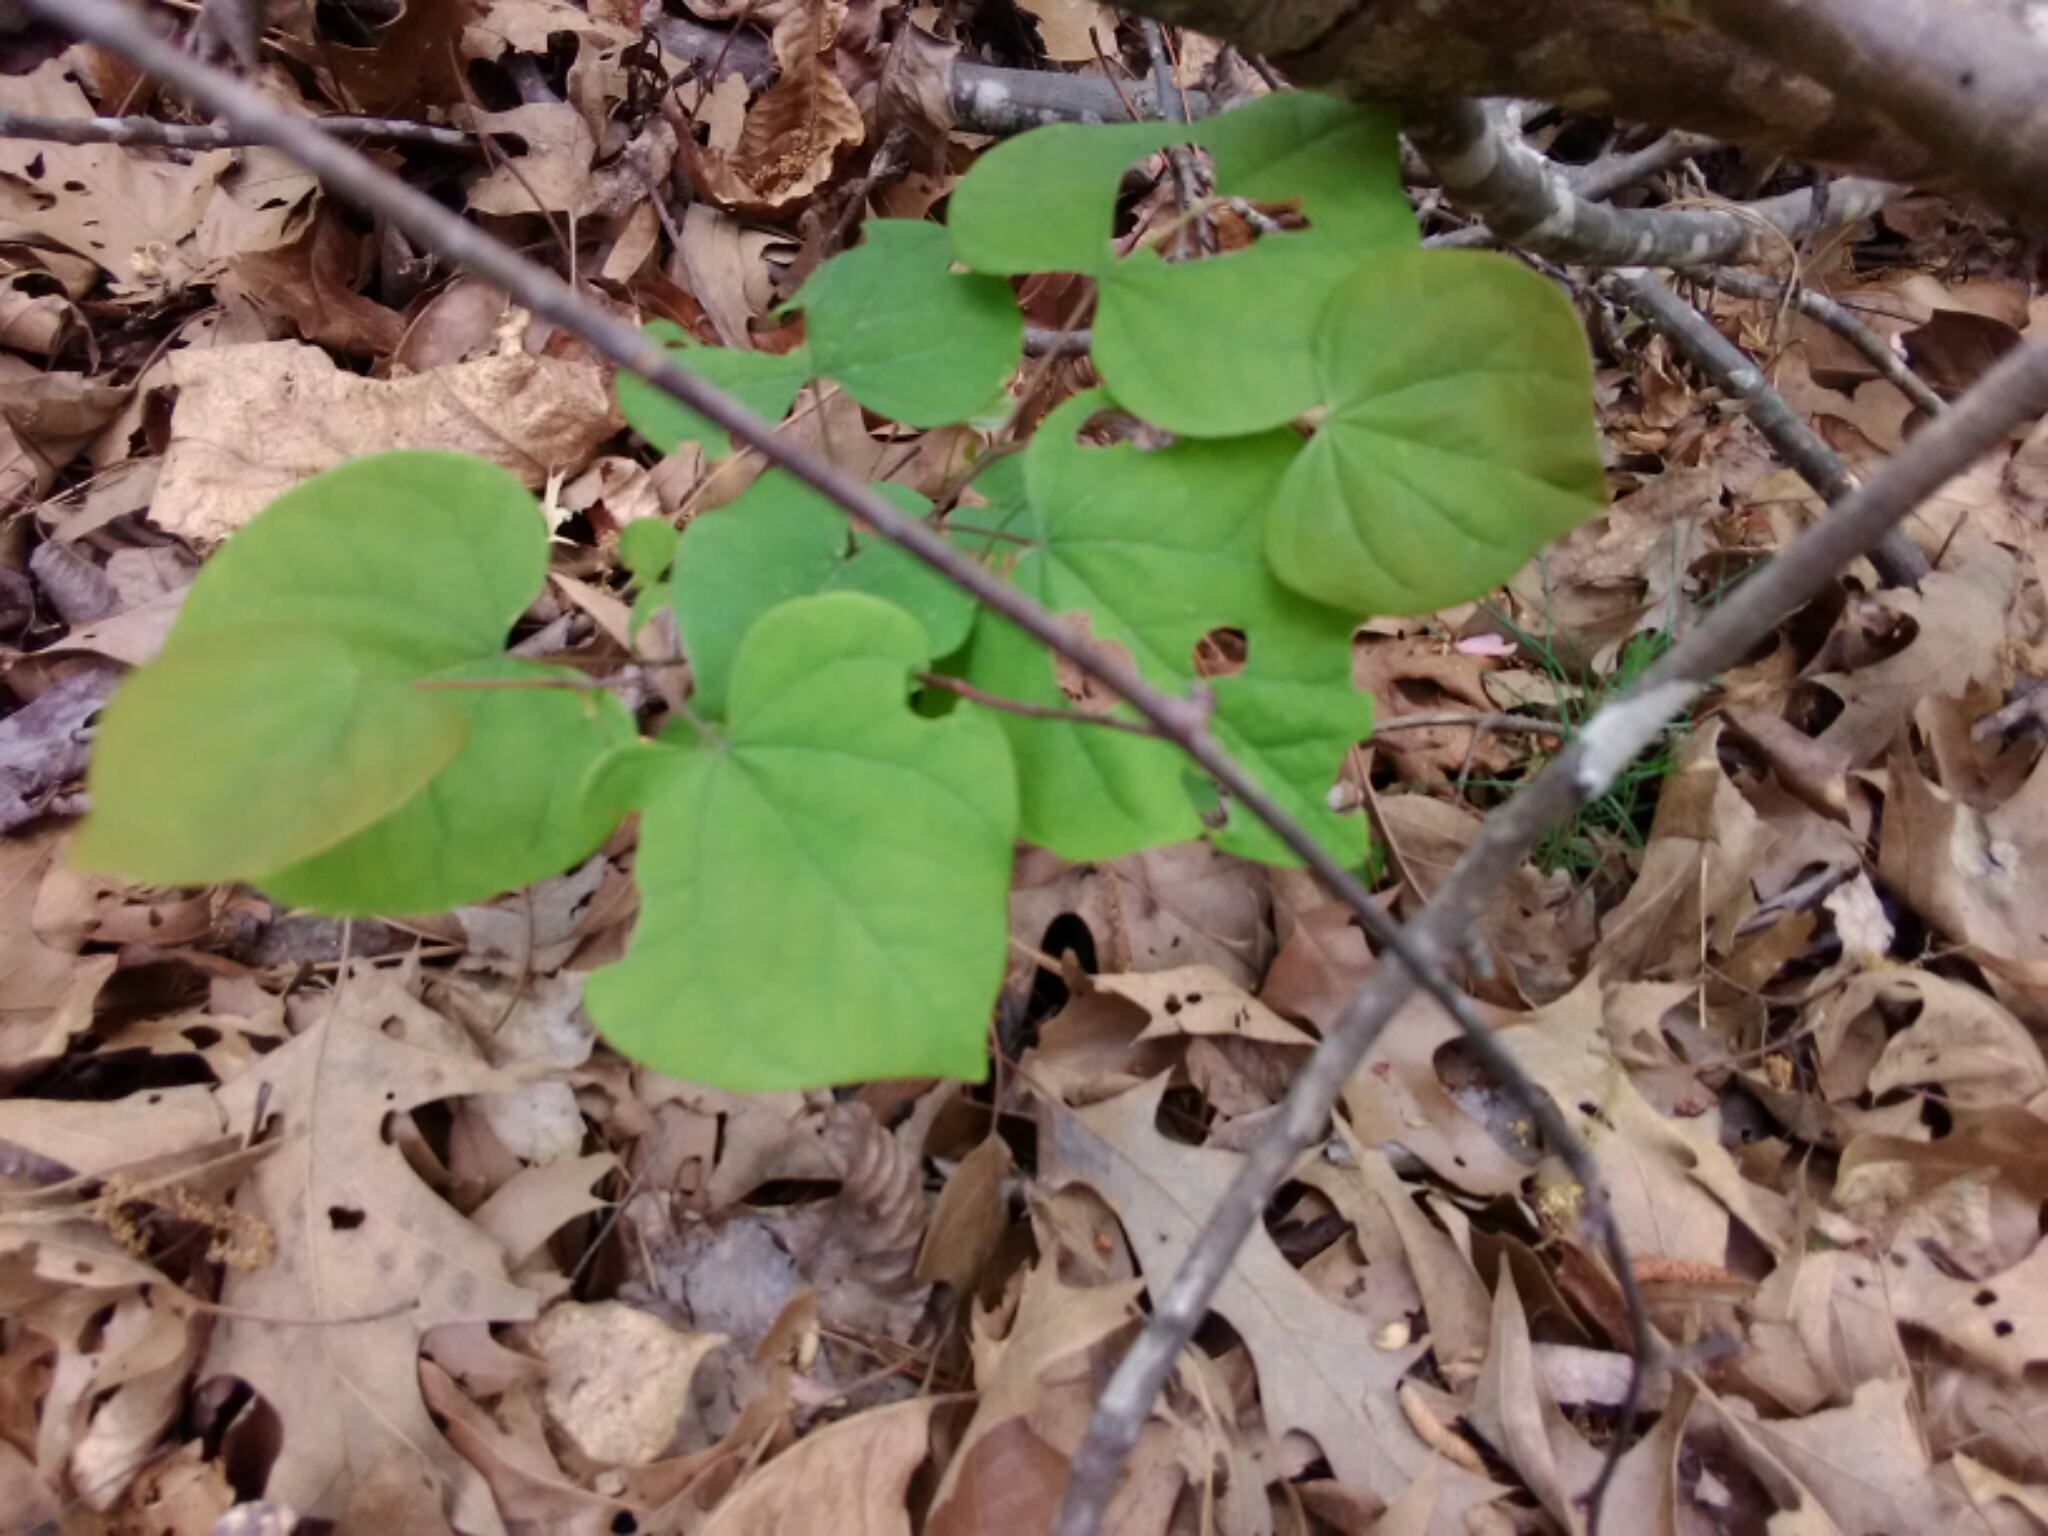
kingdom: Plantae
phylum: Tracheophyta
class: Magnoliopsida
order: Fabales
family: Fabaceae
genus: Cercis
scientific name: Cercis canadensis
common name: Eastern redbud
